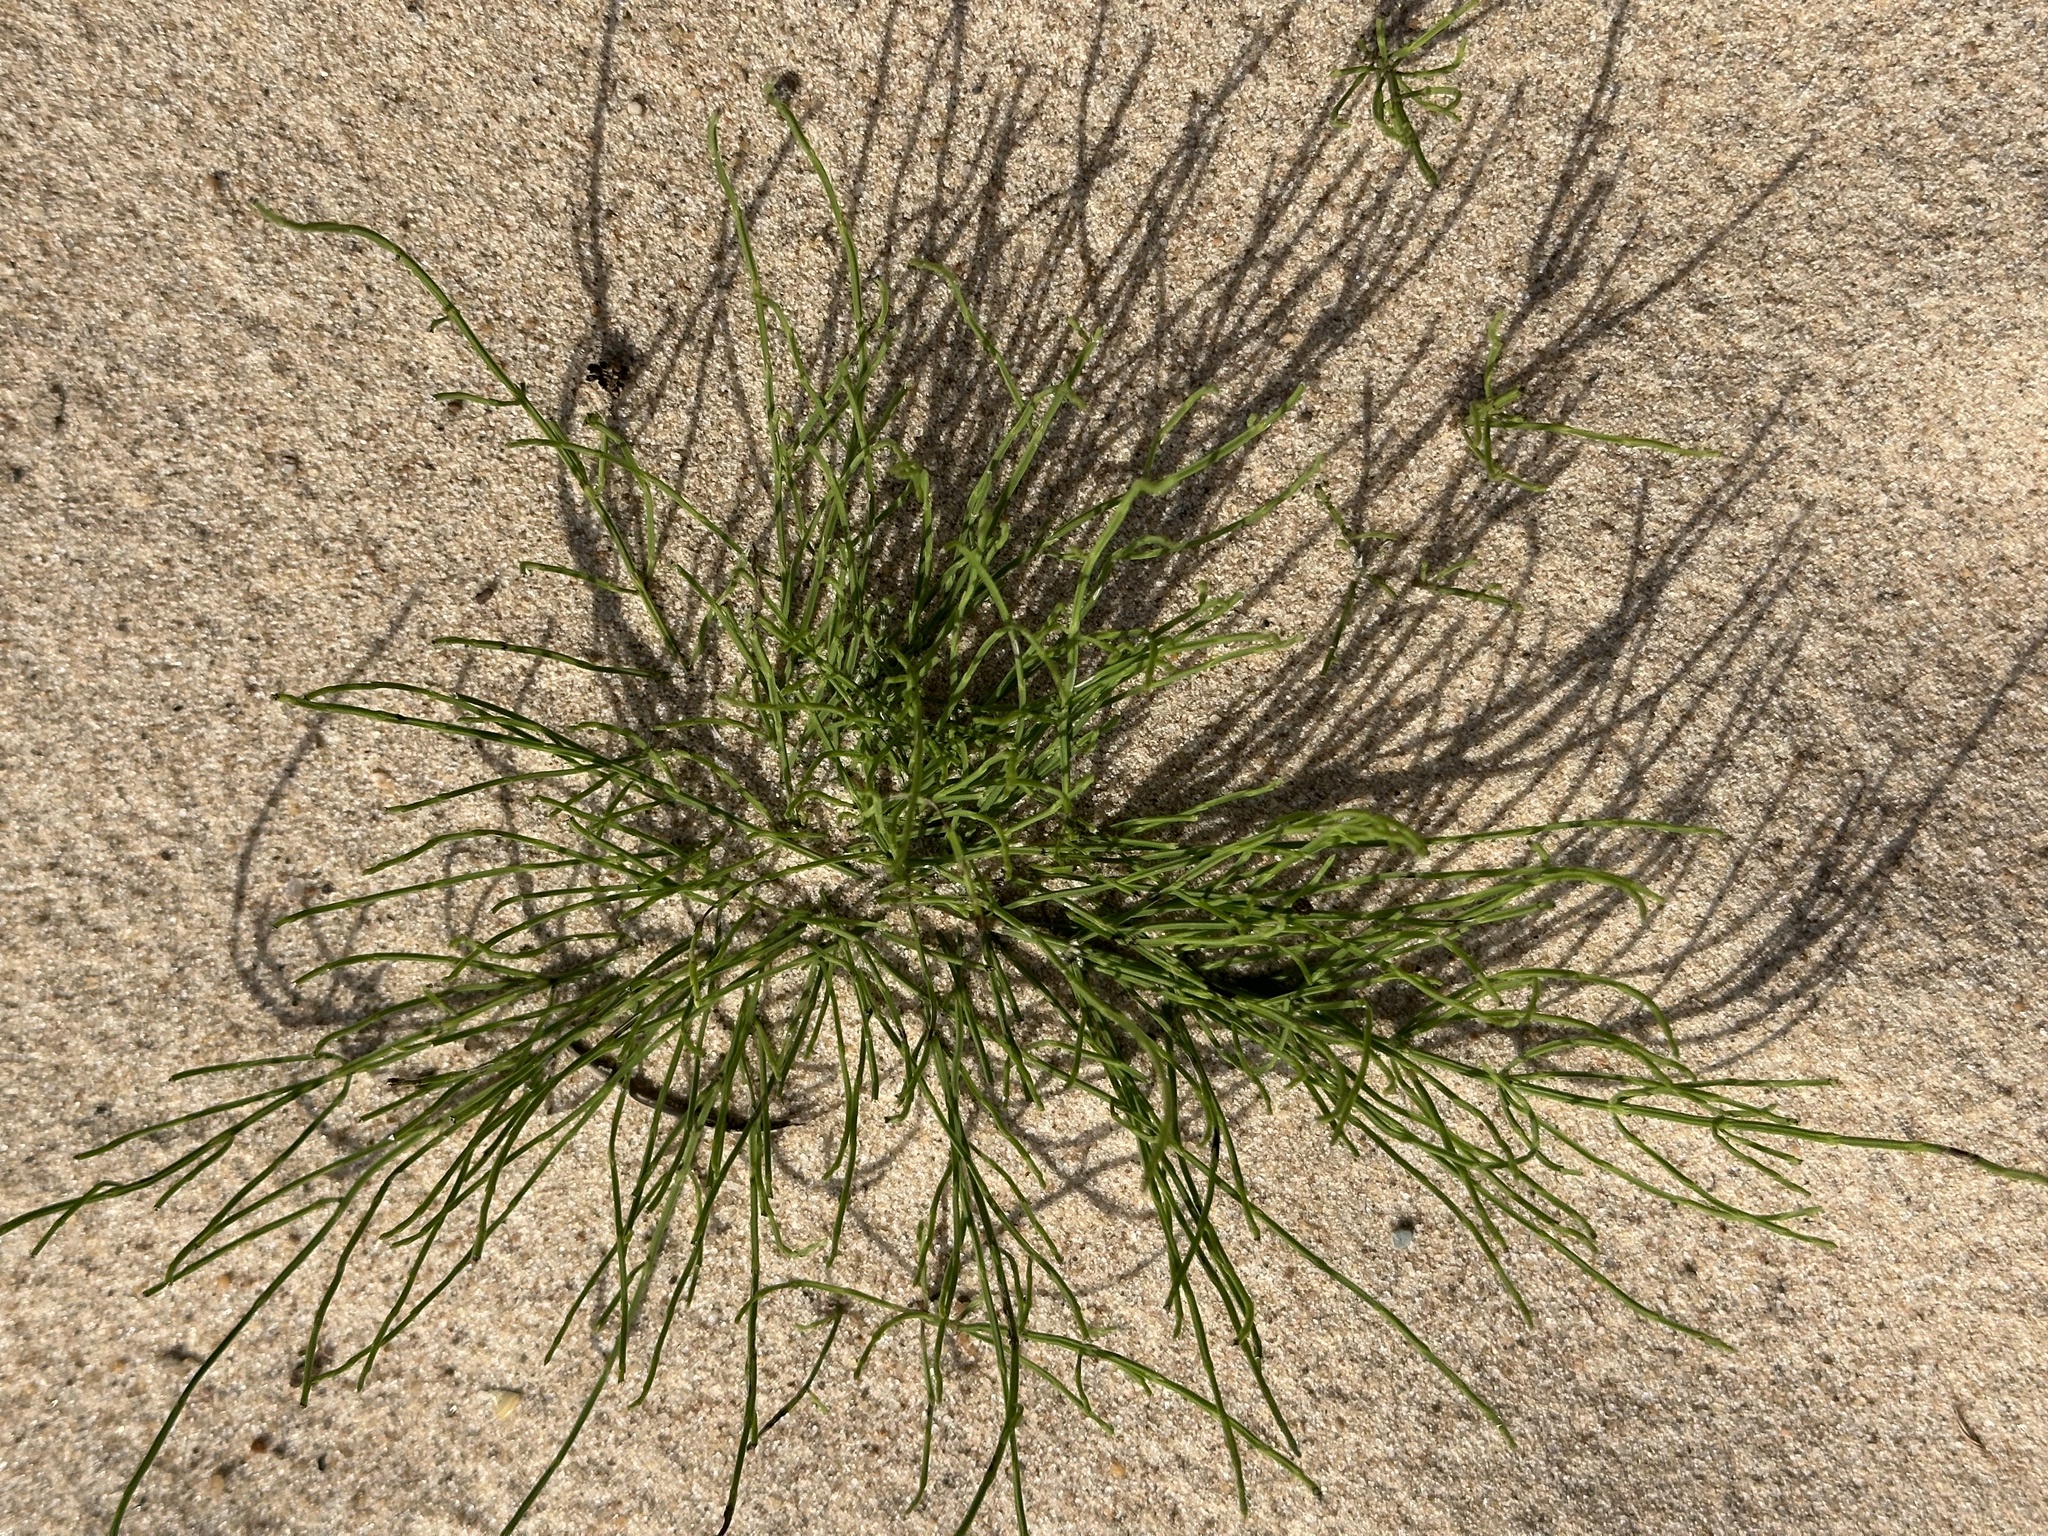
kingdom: Plantae
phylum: Tracheophyta
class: Polypodiopsida
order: Equisetales
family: Equisetaceae
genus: Equisetum
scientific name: Equisetum arvense
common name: Field horsetail
